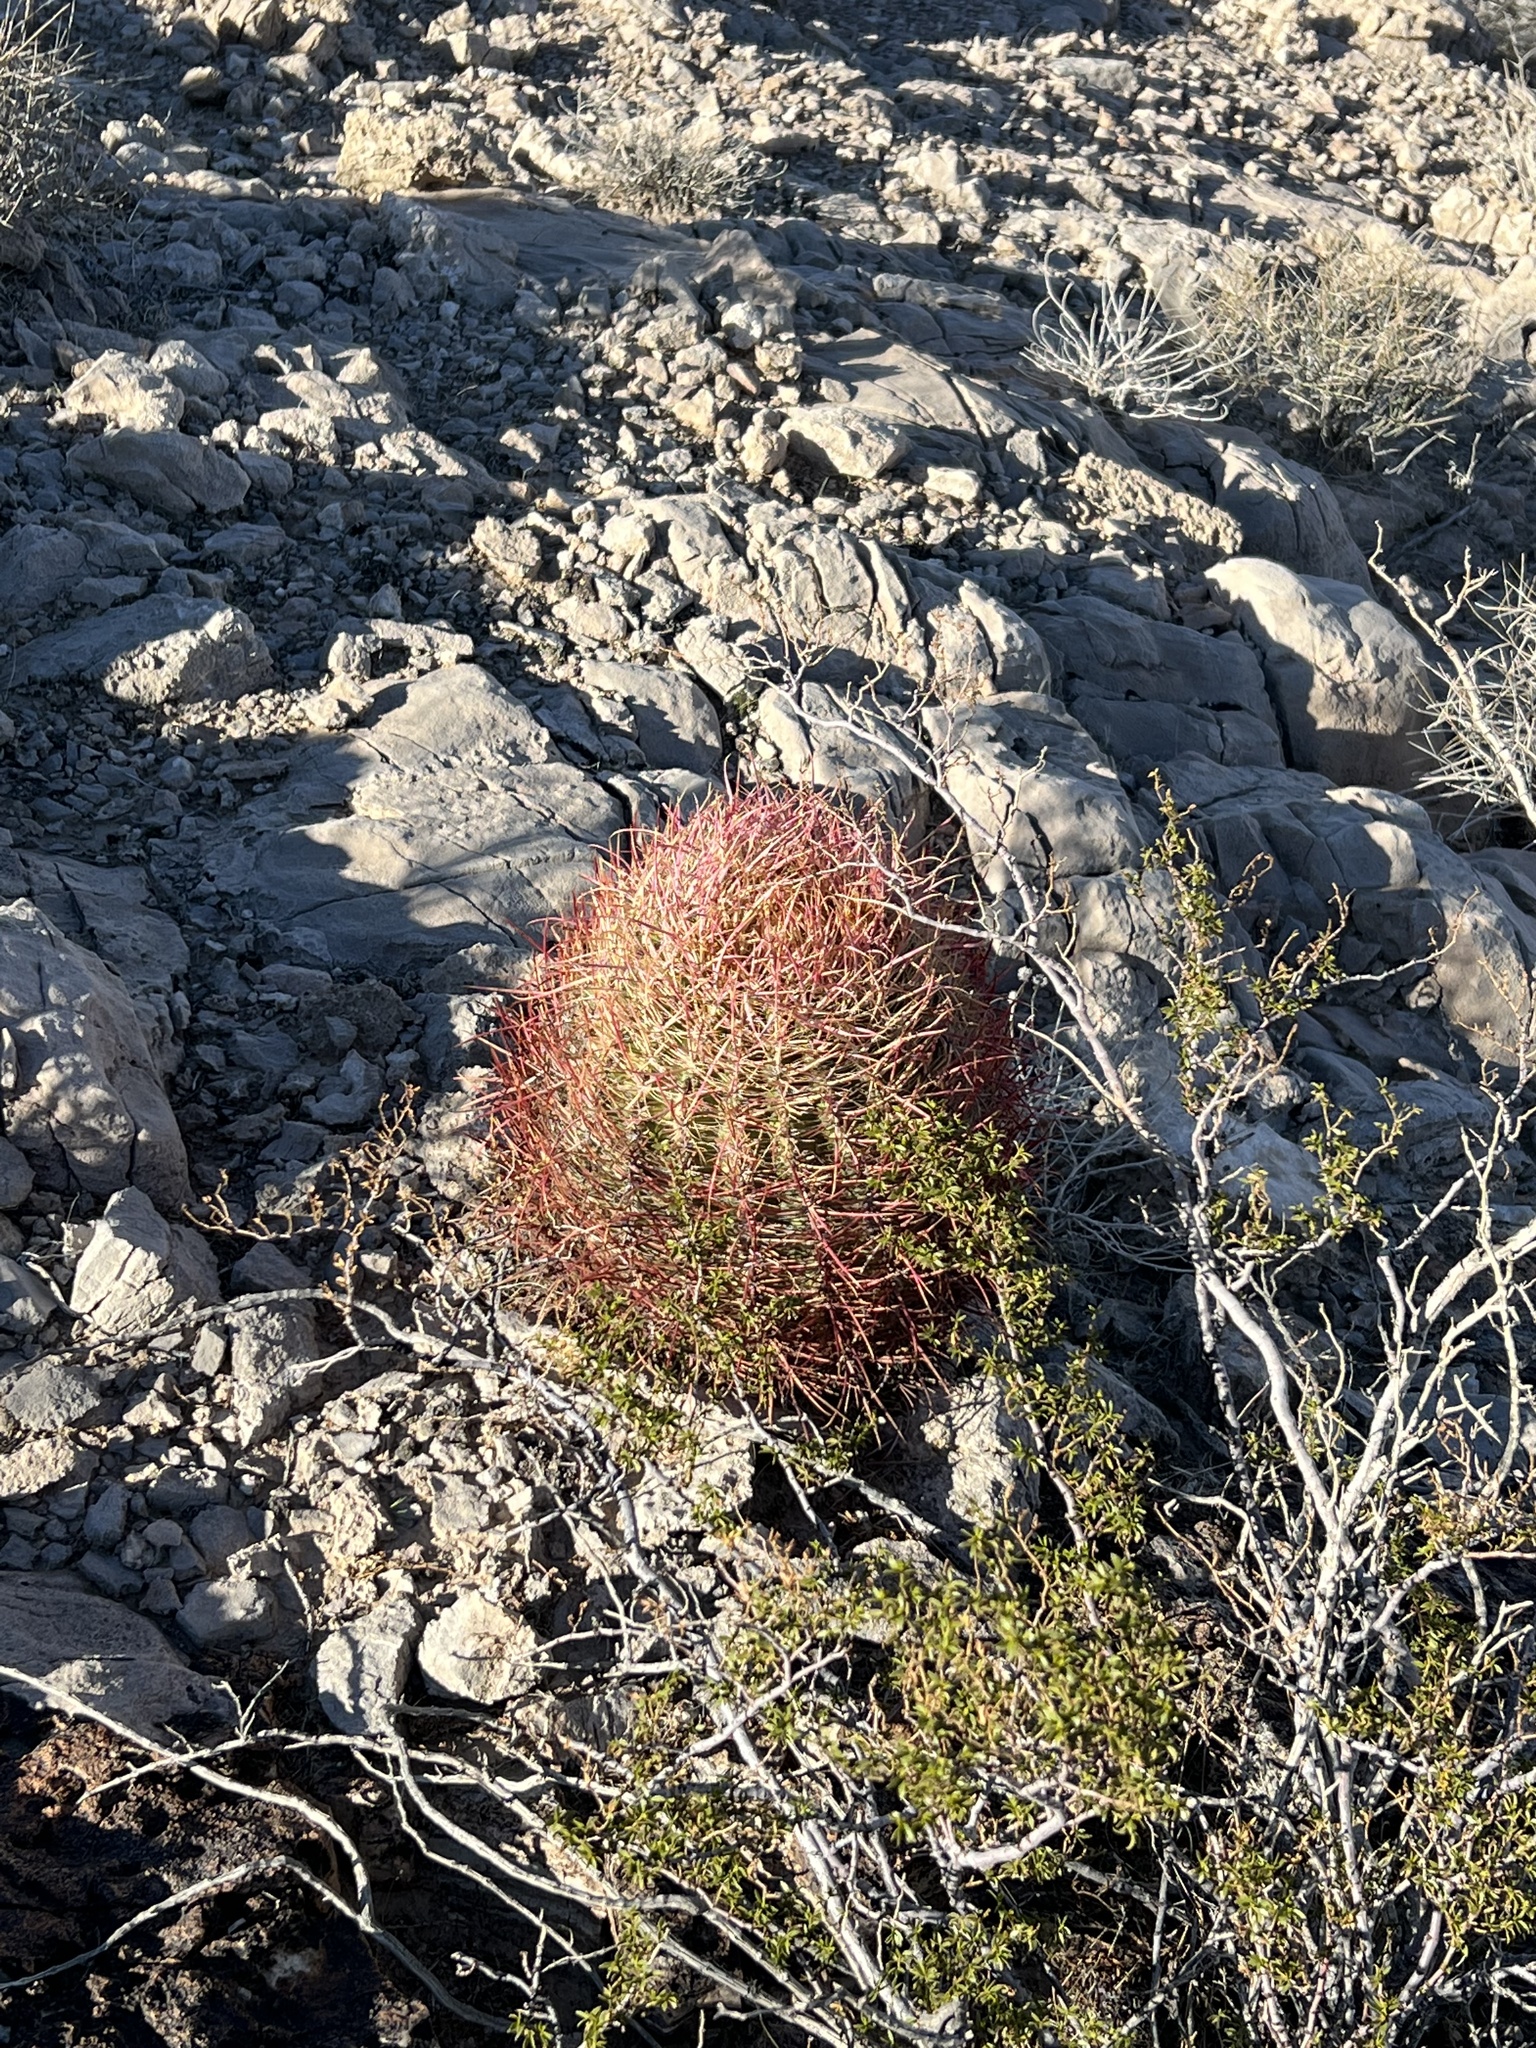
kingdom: Plantae
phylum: Tracheophyta
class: Magnoliopsida
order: Caryophyllales
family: Cactaceae
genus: Ferocactus
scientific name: Ferocactus cylindraceus
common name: California barrel cactus
